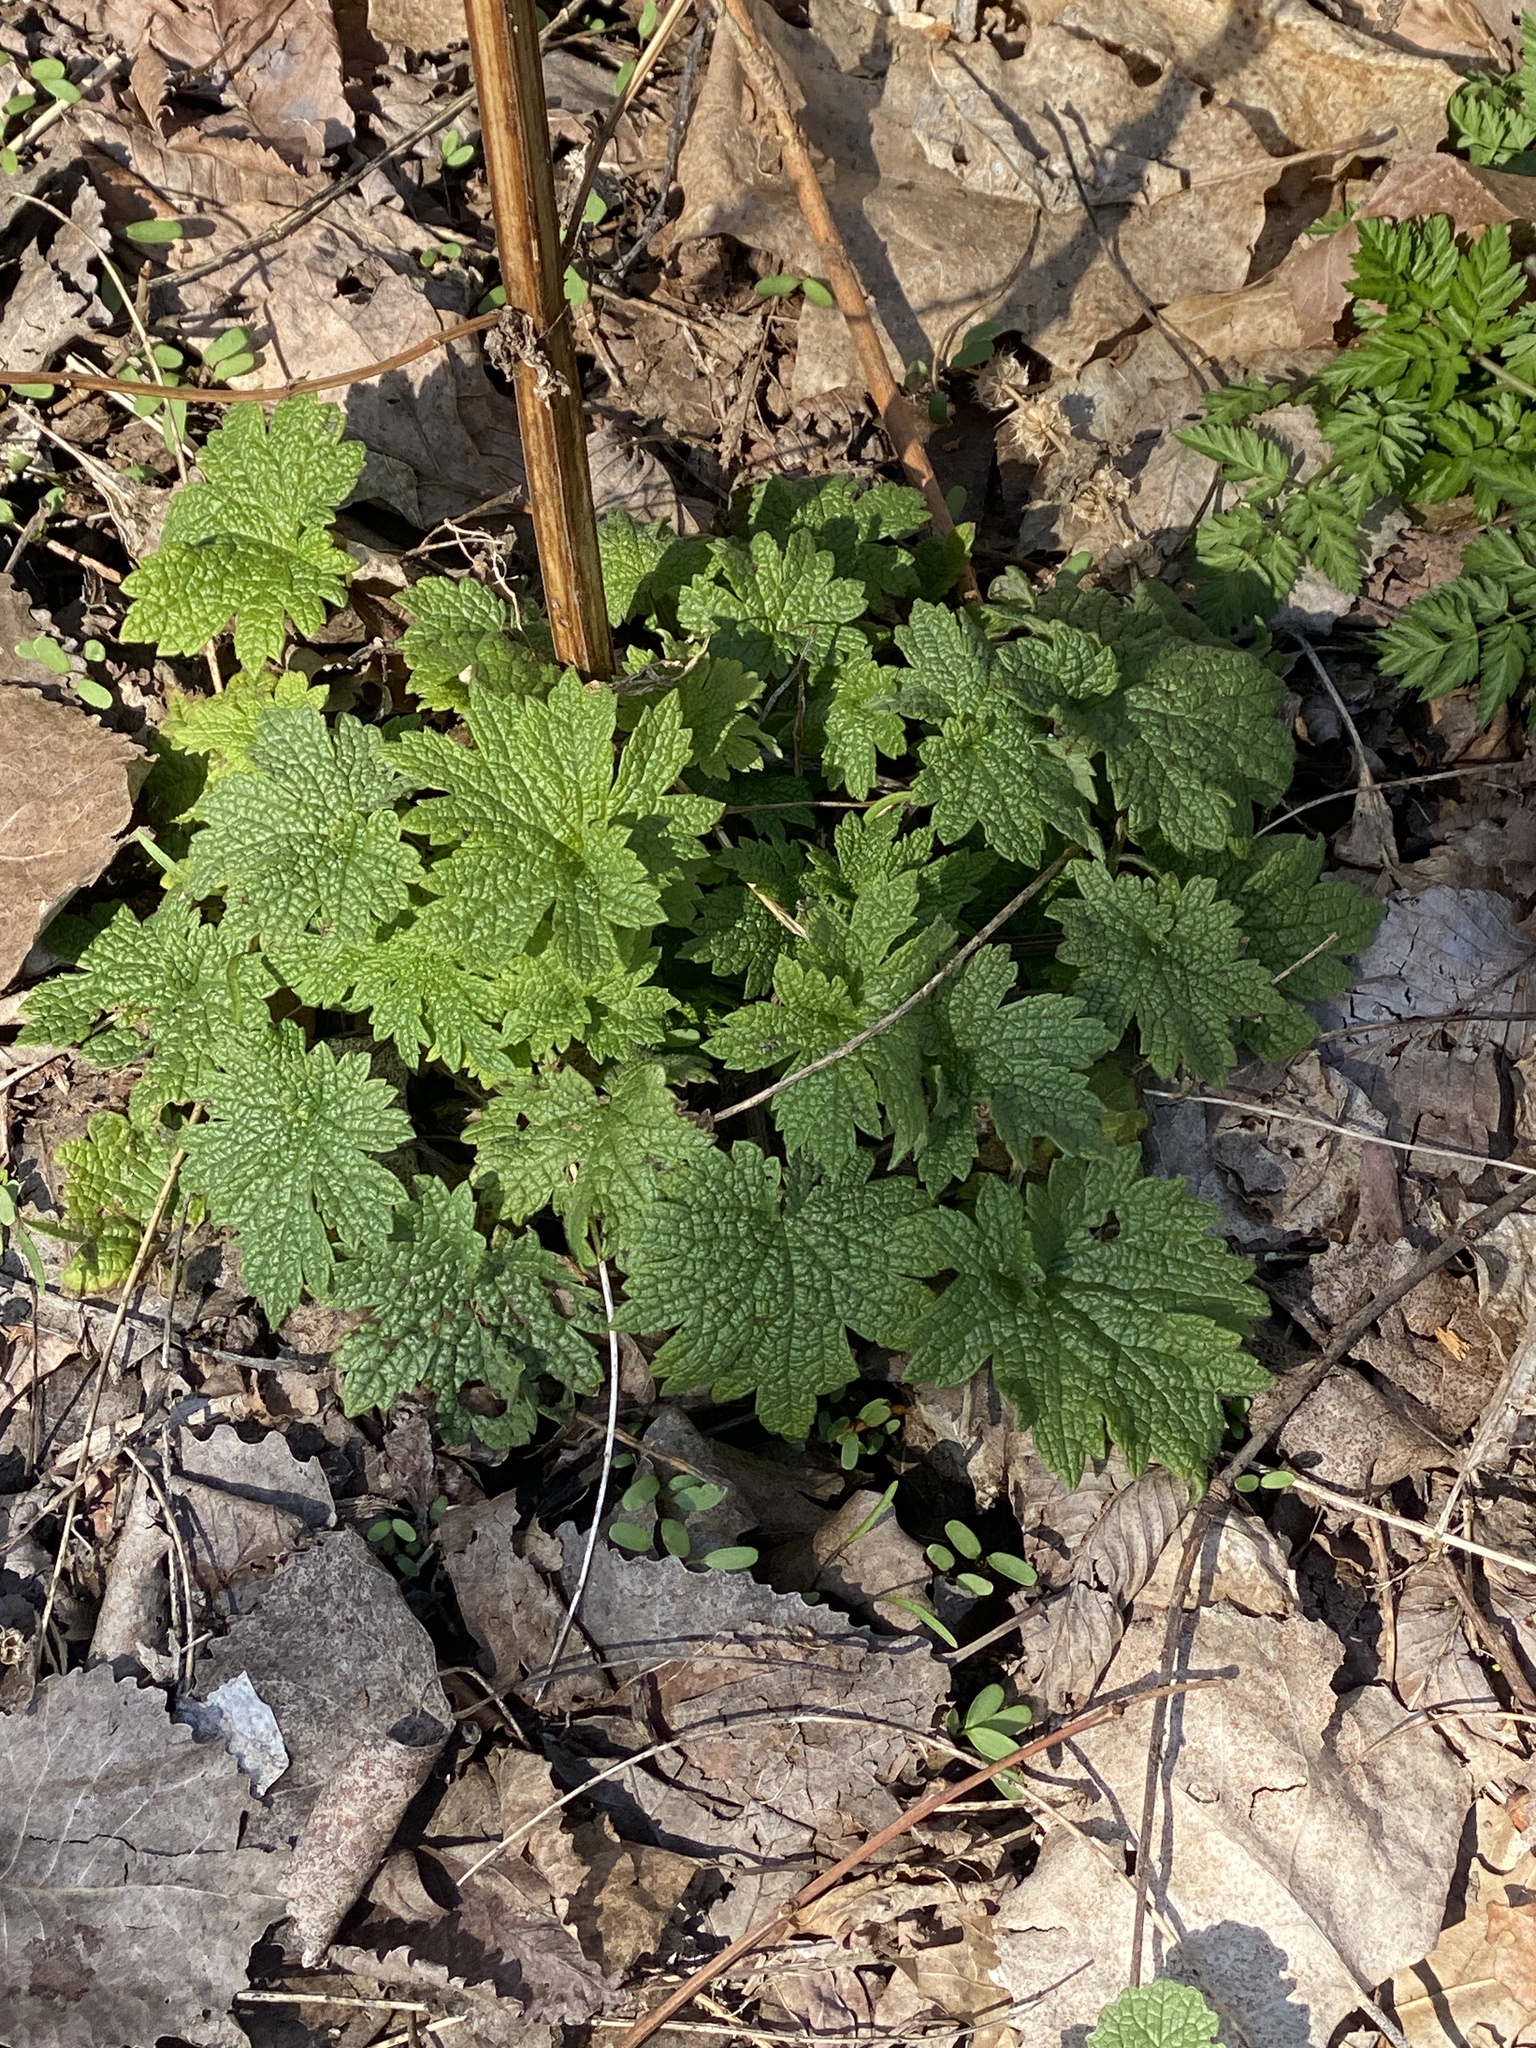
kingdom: Plantae
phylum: Tracheophyta
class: Magnoliopsida
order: Lamiales
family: Lamiaceae
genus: Leonurus
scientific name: Leonurus cardiaca
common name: Motherwort
